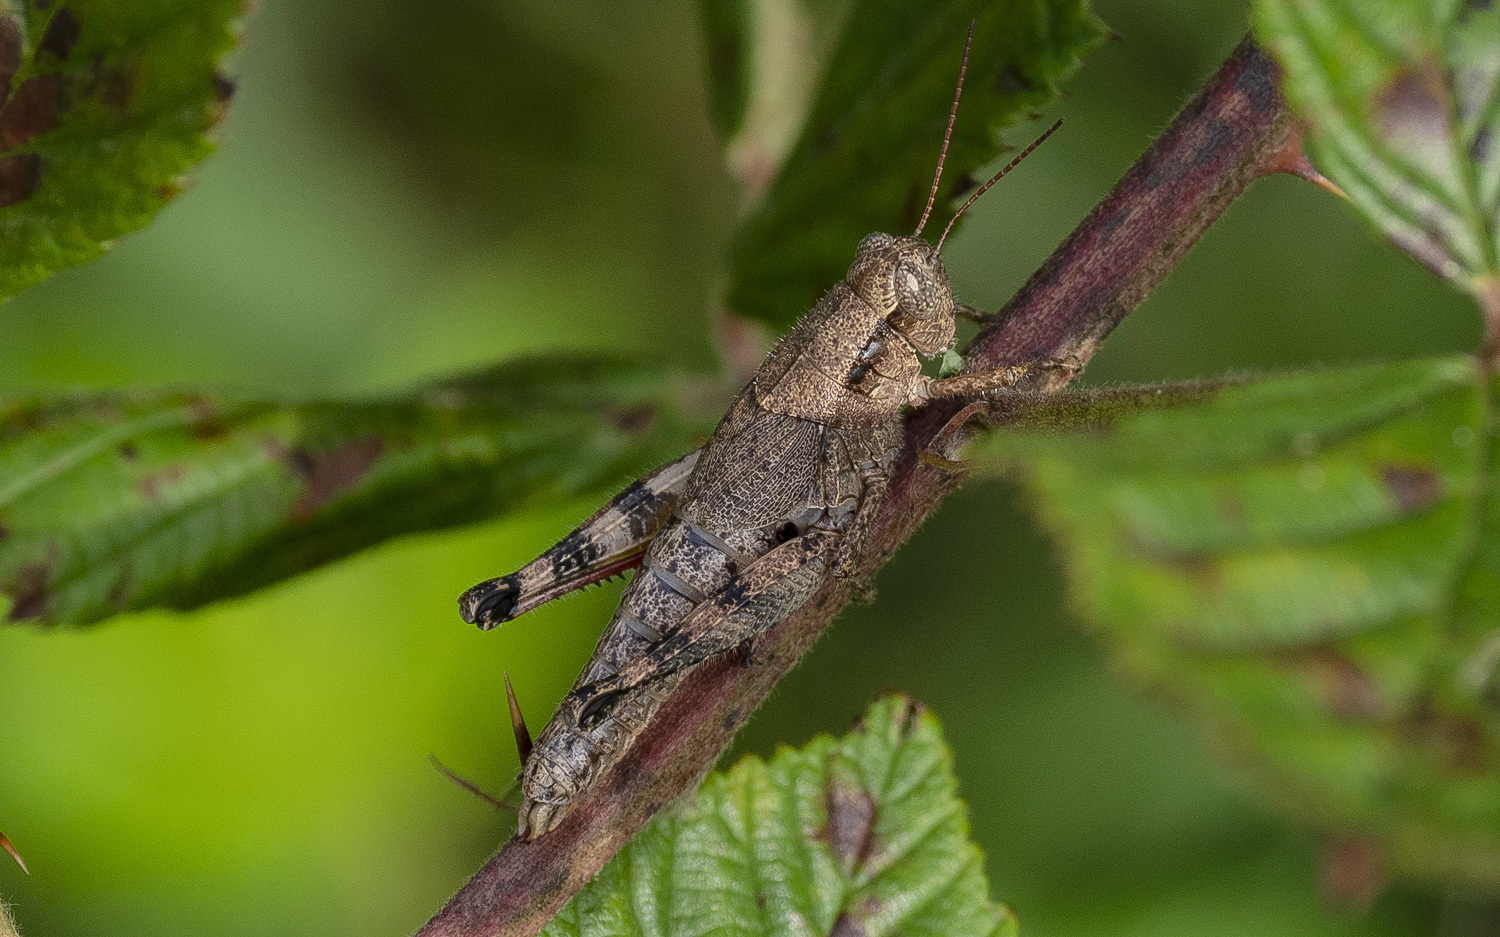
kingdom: Animalia
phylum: Arthropoda
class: Insecta
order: Orthoptera
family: Acrididae
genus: Melanoplus
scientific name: Melanoplus scudderi
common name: Scudder's short-winged locust
